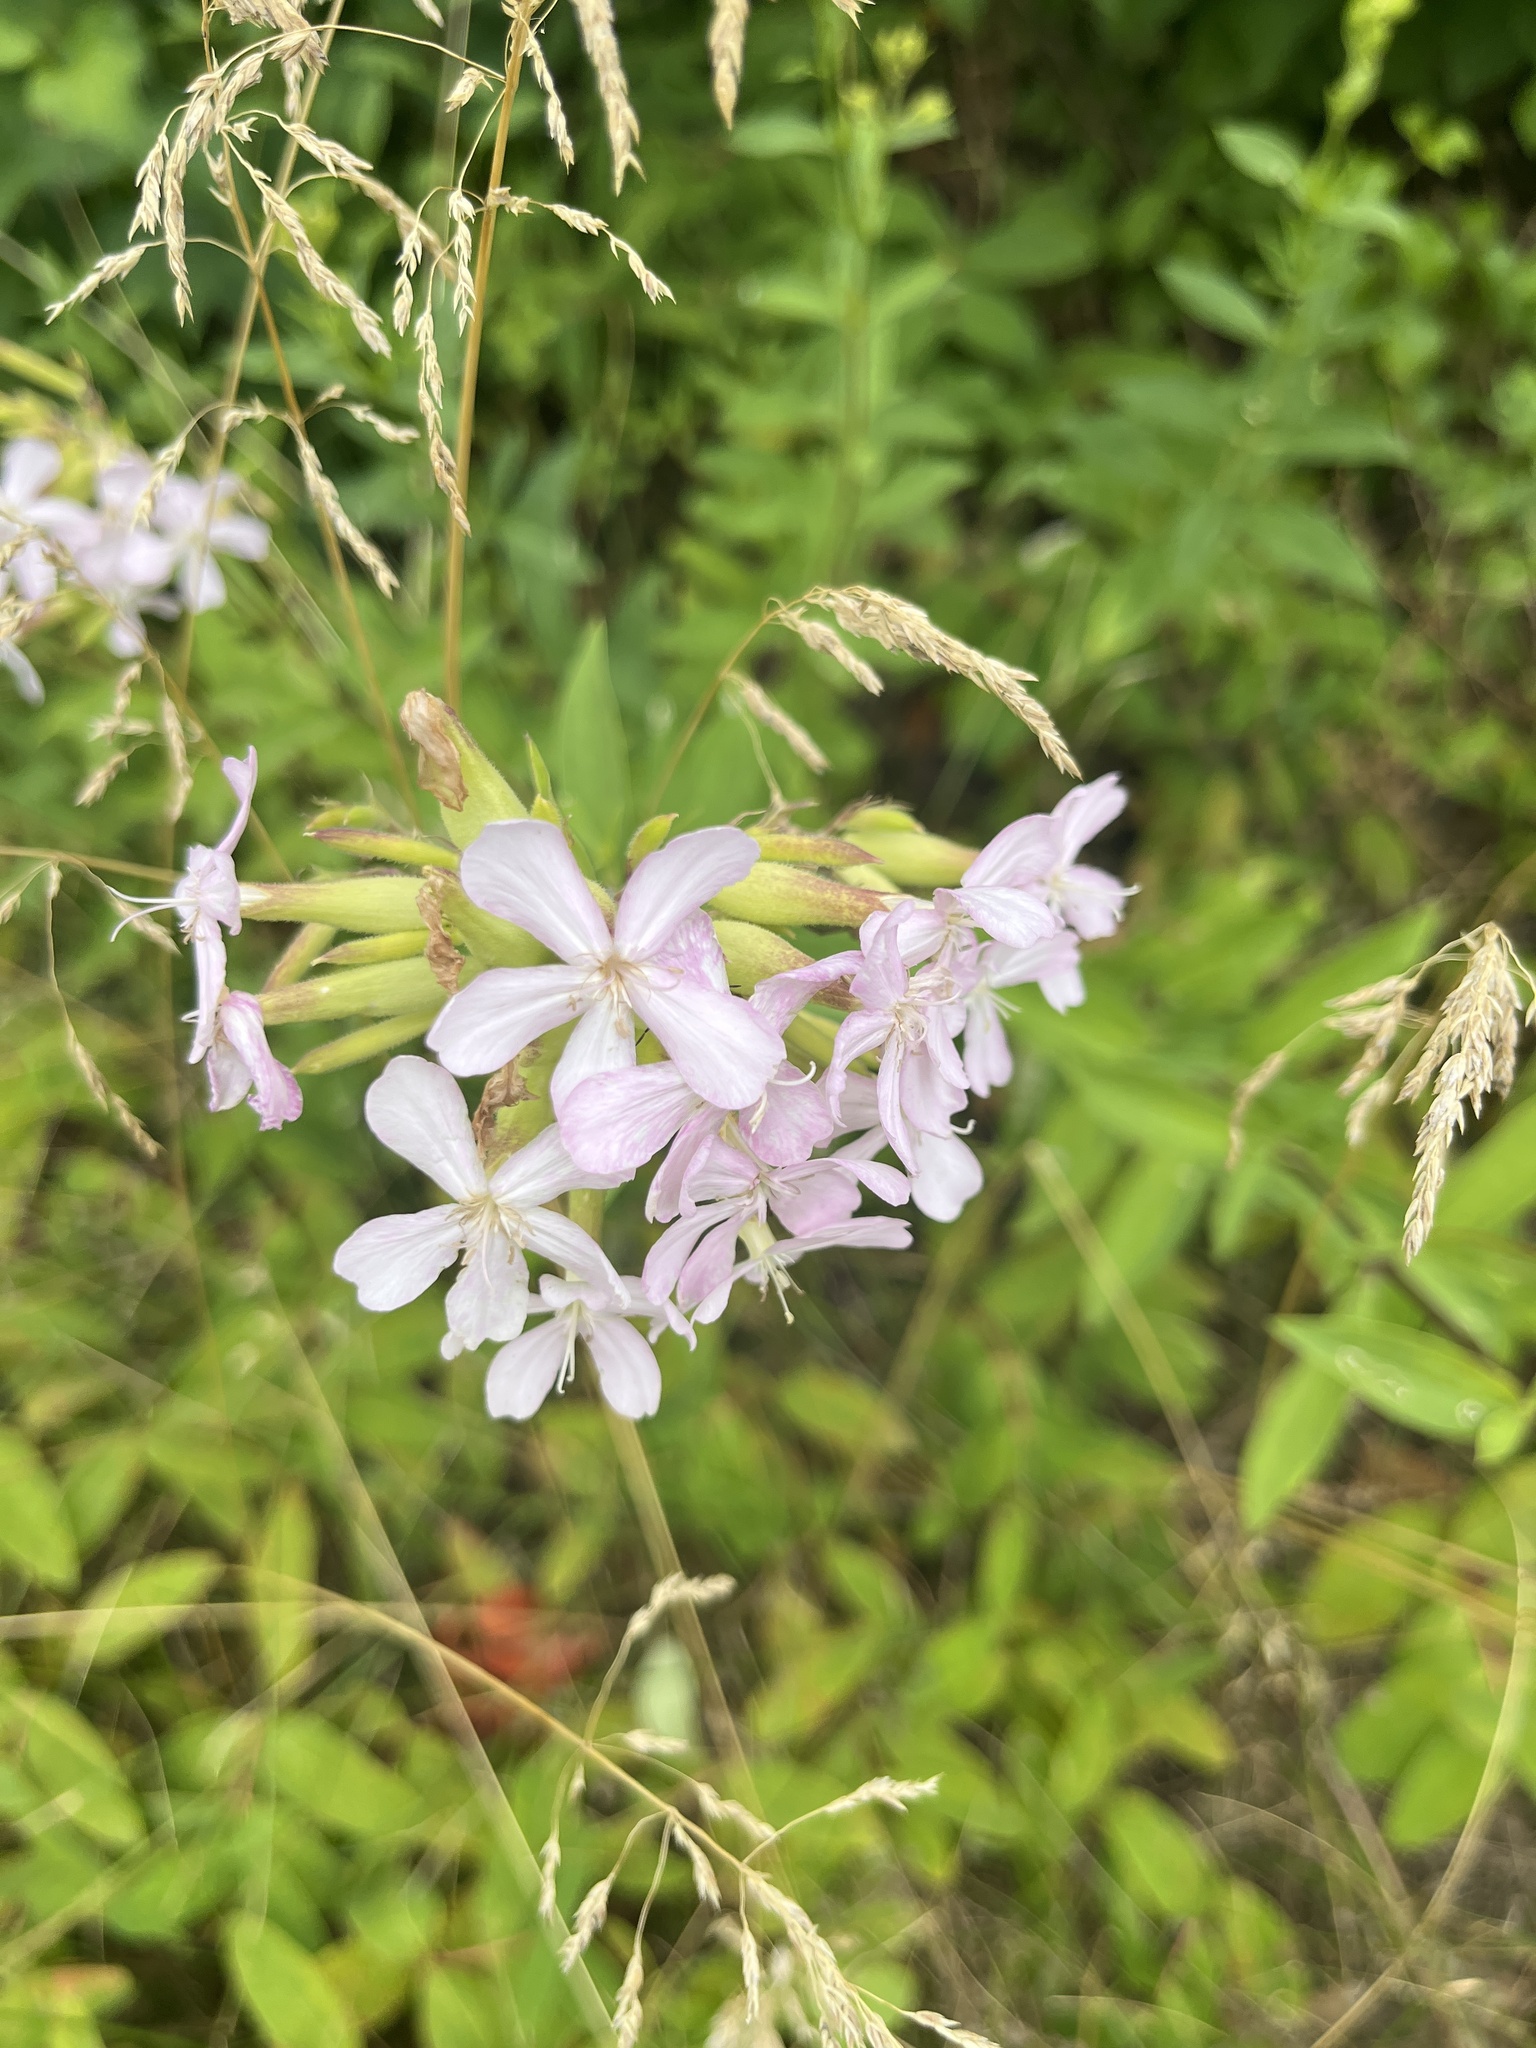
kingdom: Plantae
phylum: Tracheophyta
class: Magnoliopsida
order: Caryophyllales
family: Caryophyllaceae
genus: Saponaria
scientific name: Saponaria officinalis
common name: Soapwort
